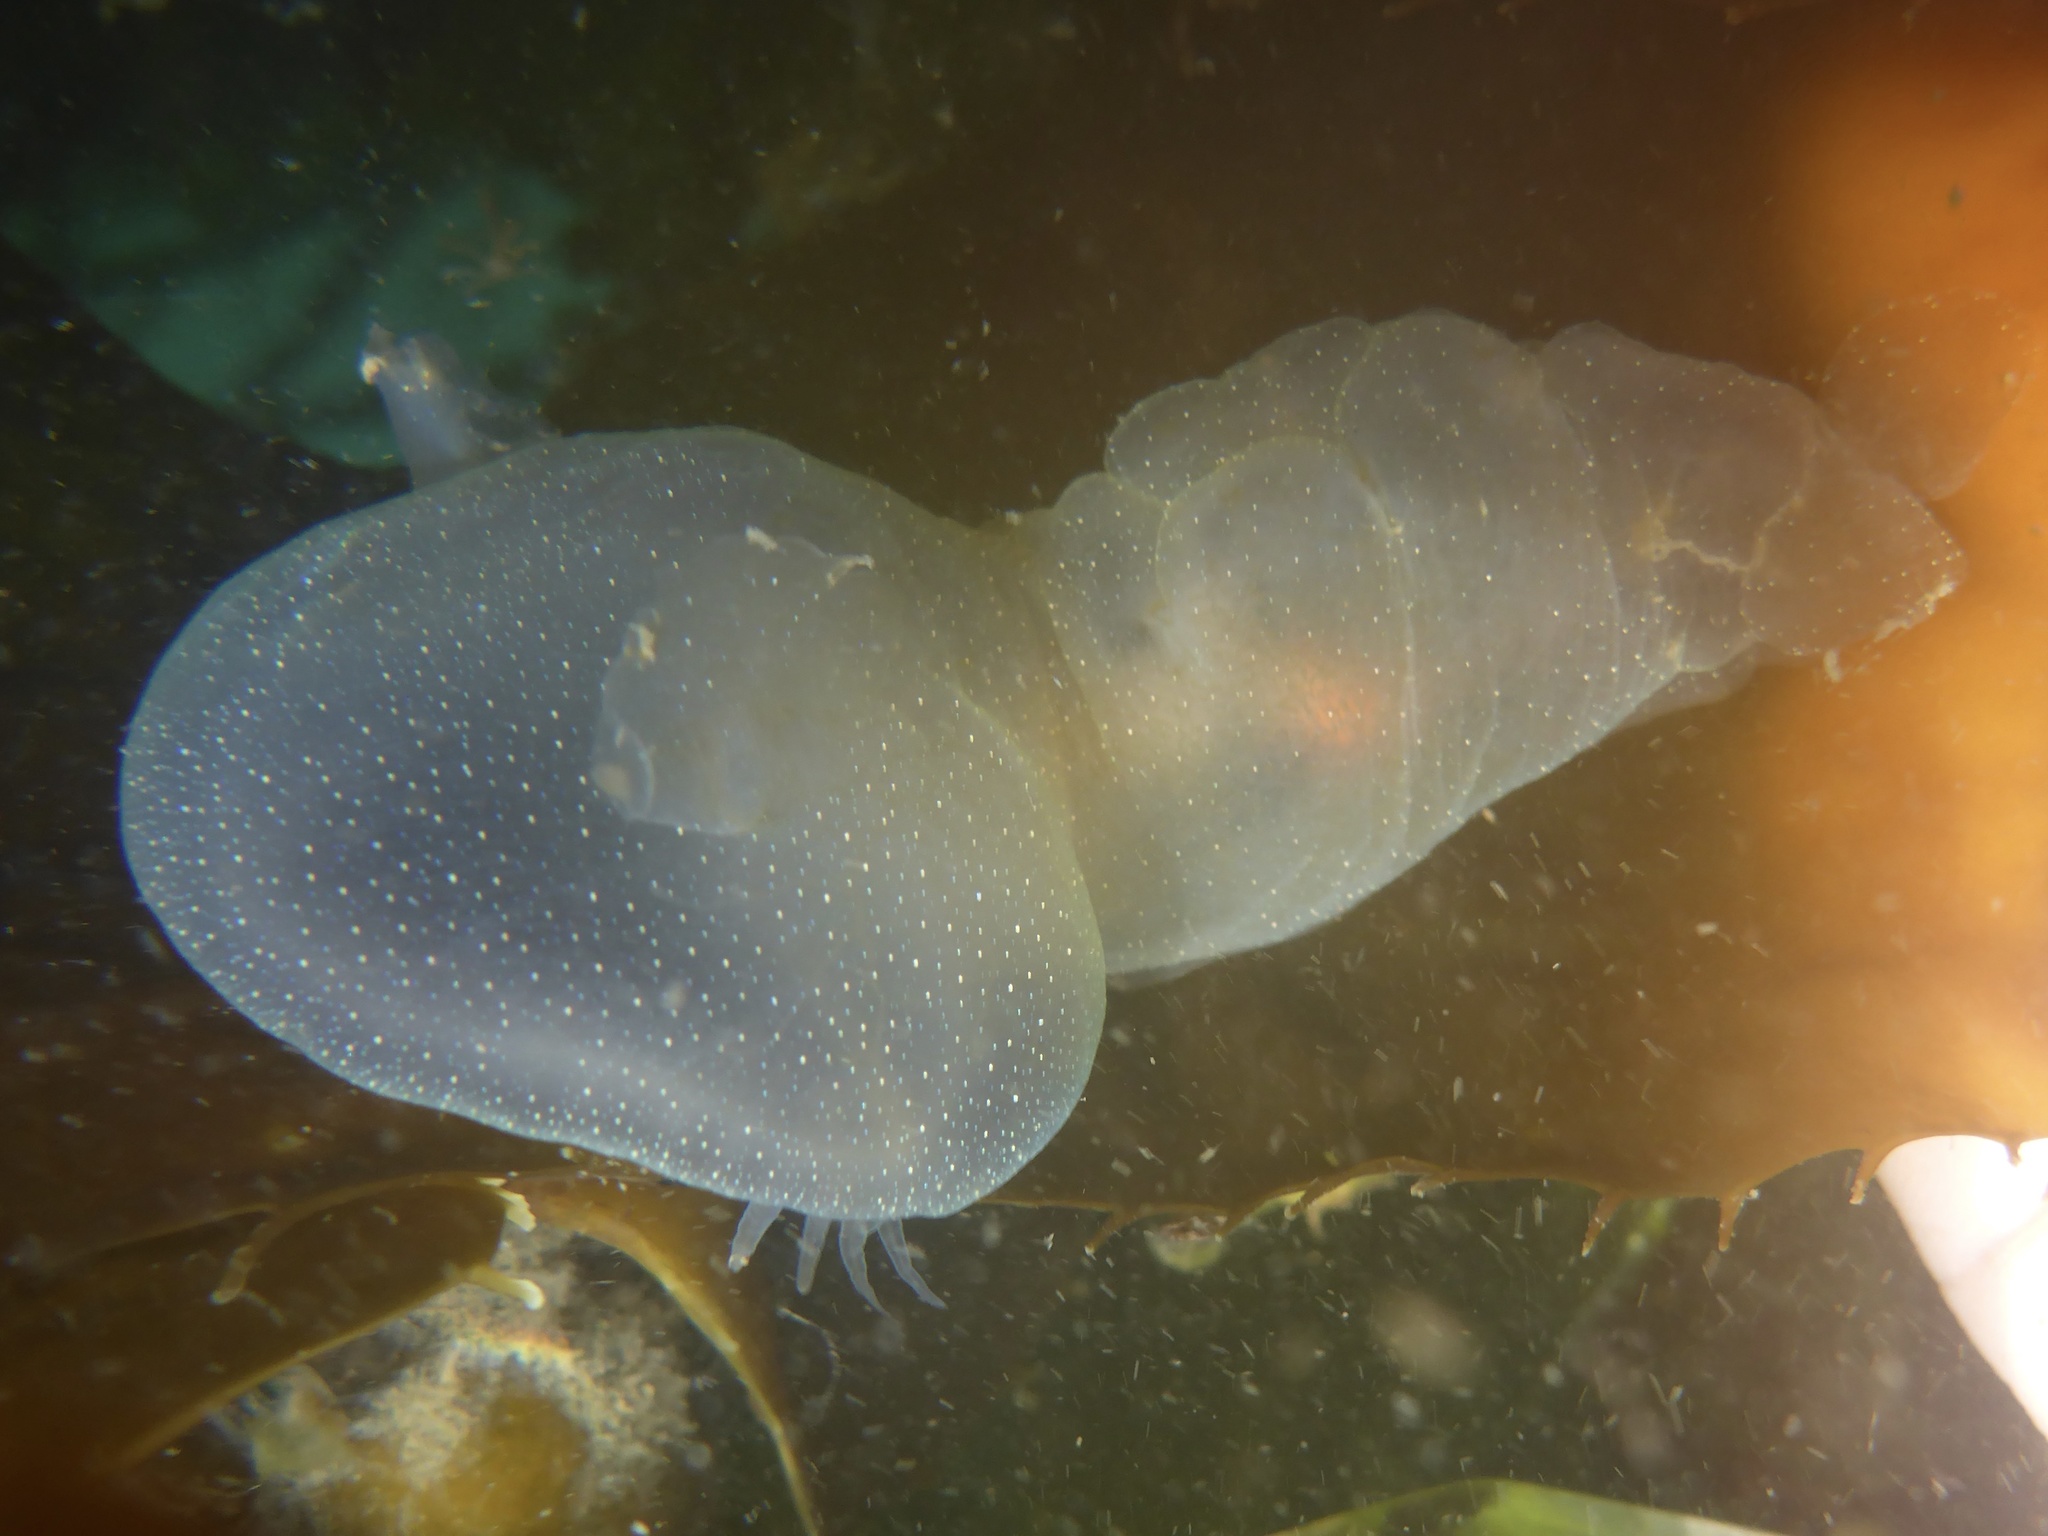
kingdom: Animalia
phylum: Mollusca
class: Gastropoda
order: Nudibranchia
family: Tethydidae
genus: Melibe
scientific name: Melibe leonina
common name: Lion nudibranch
